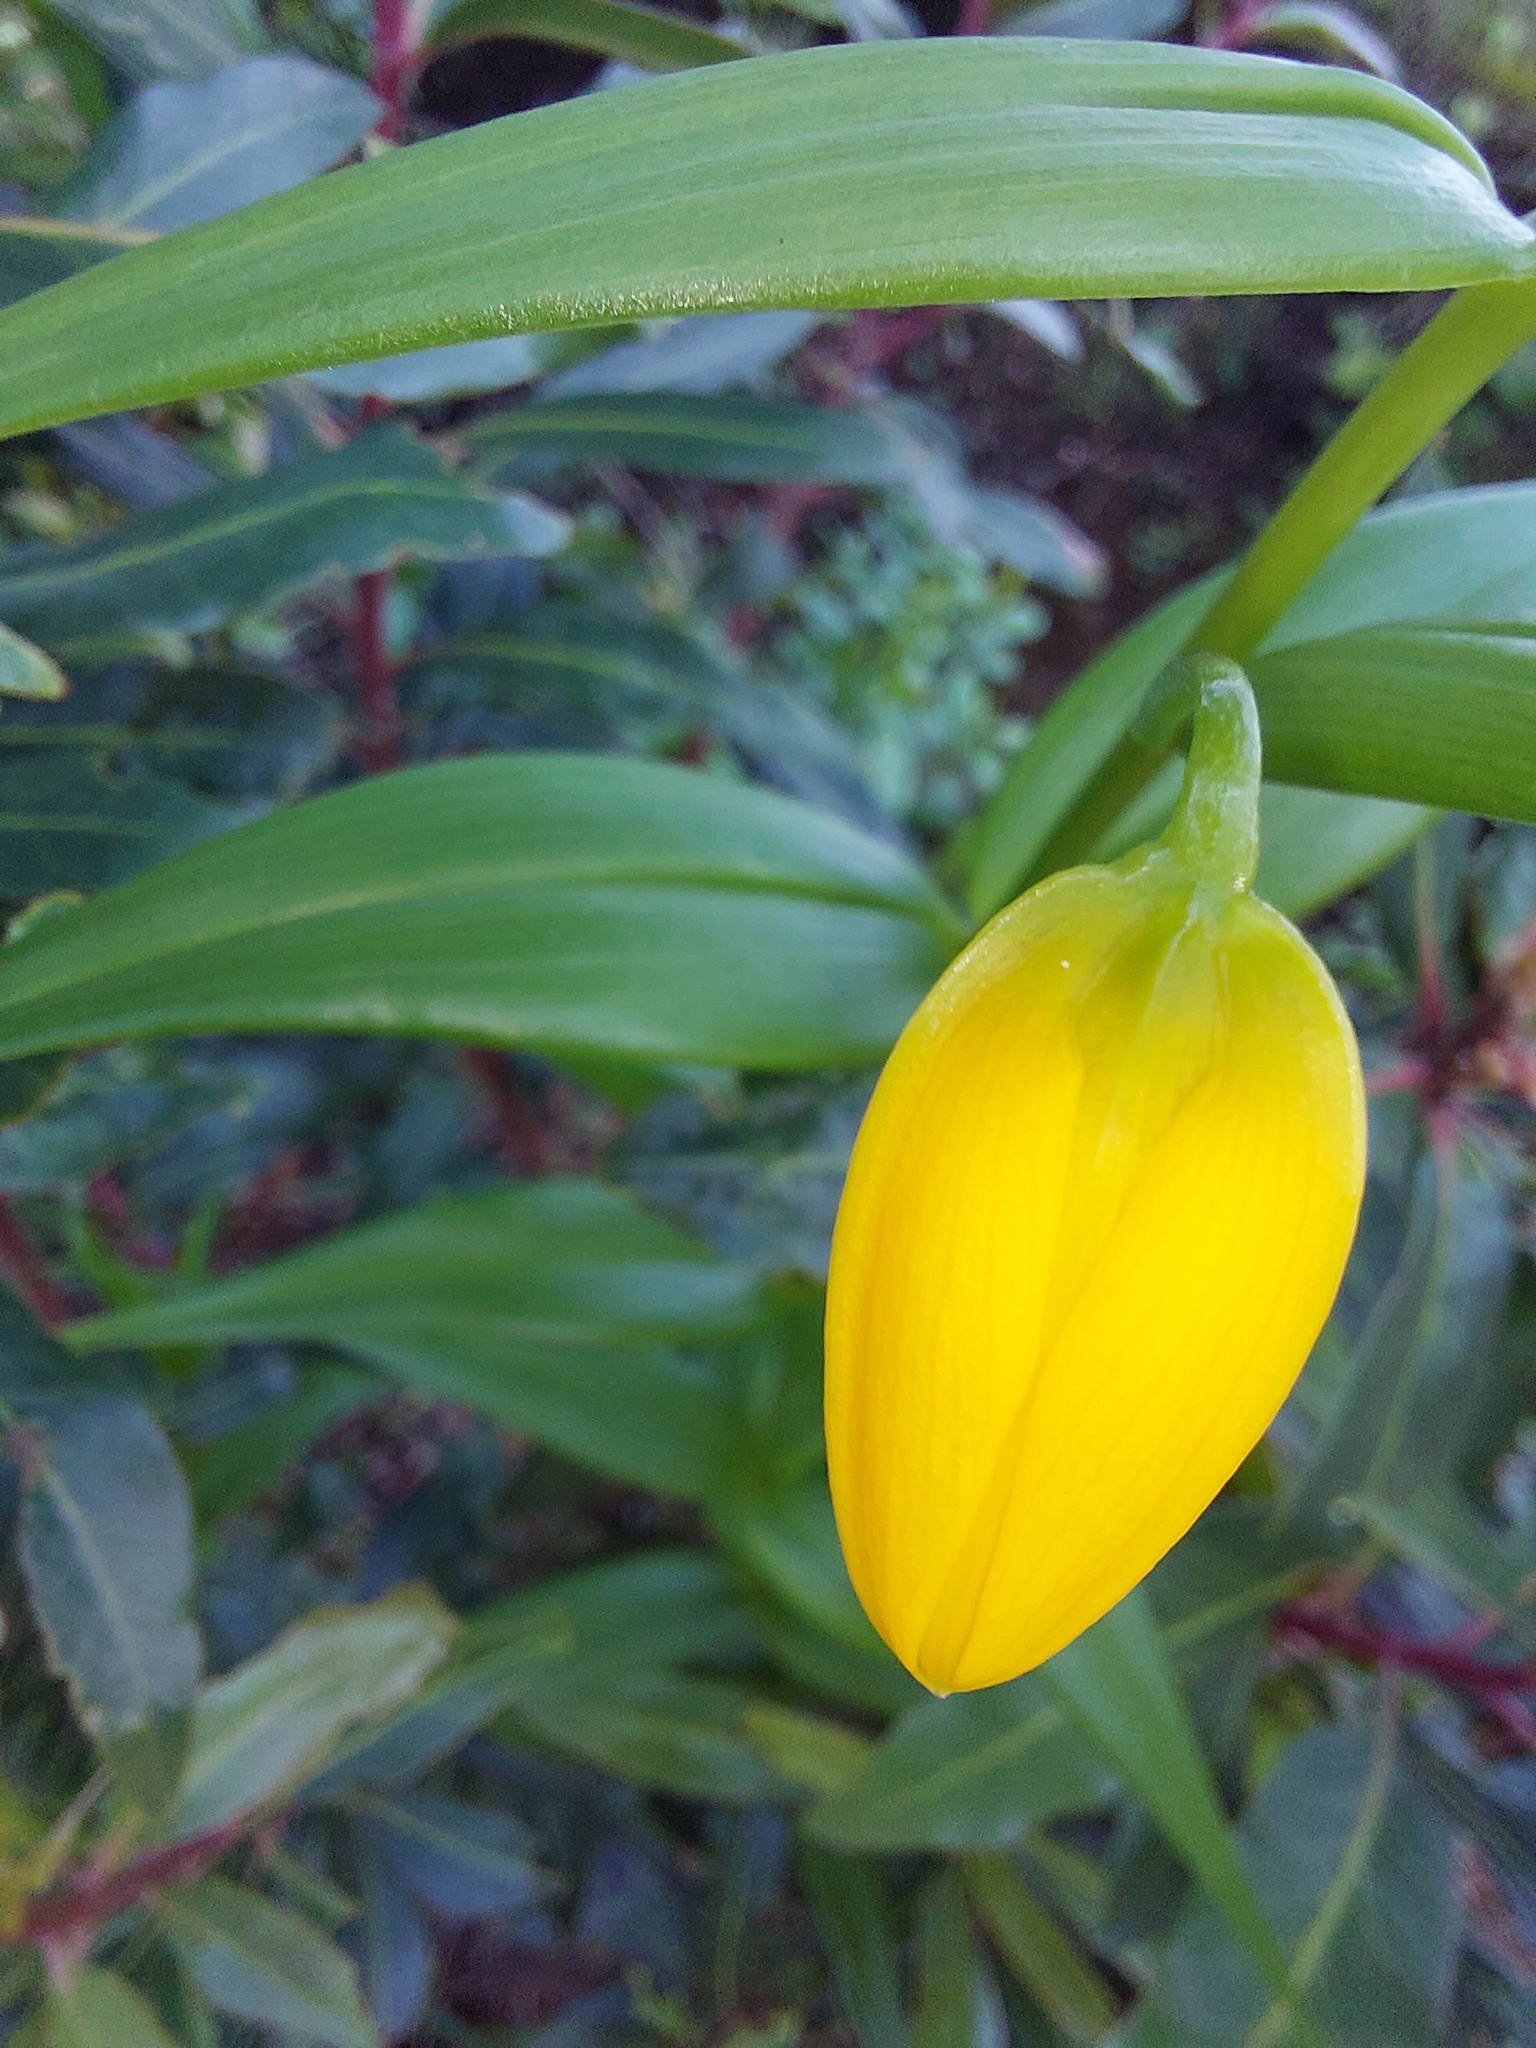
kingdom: Plantae
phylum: Tracheophyta
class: Liliopsida
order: Liliales
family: Colchicaceae
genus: Gloriosa
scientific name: Gloriosa modesta
